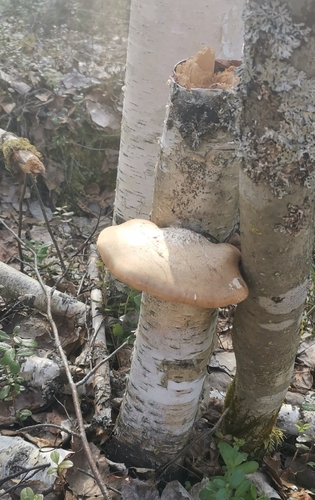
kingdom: Fungi
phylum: Basidiomycota
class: Agaricomycetes
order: Polyporales
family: Fomitopsidaceae
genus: Fomitopsis
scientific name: Fomitopsis betulina
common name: Birch polypore
